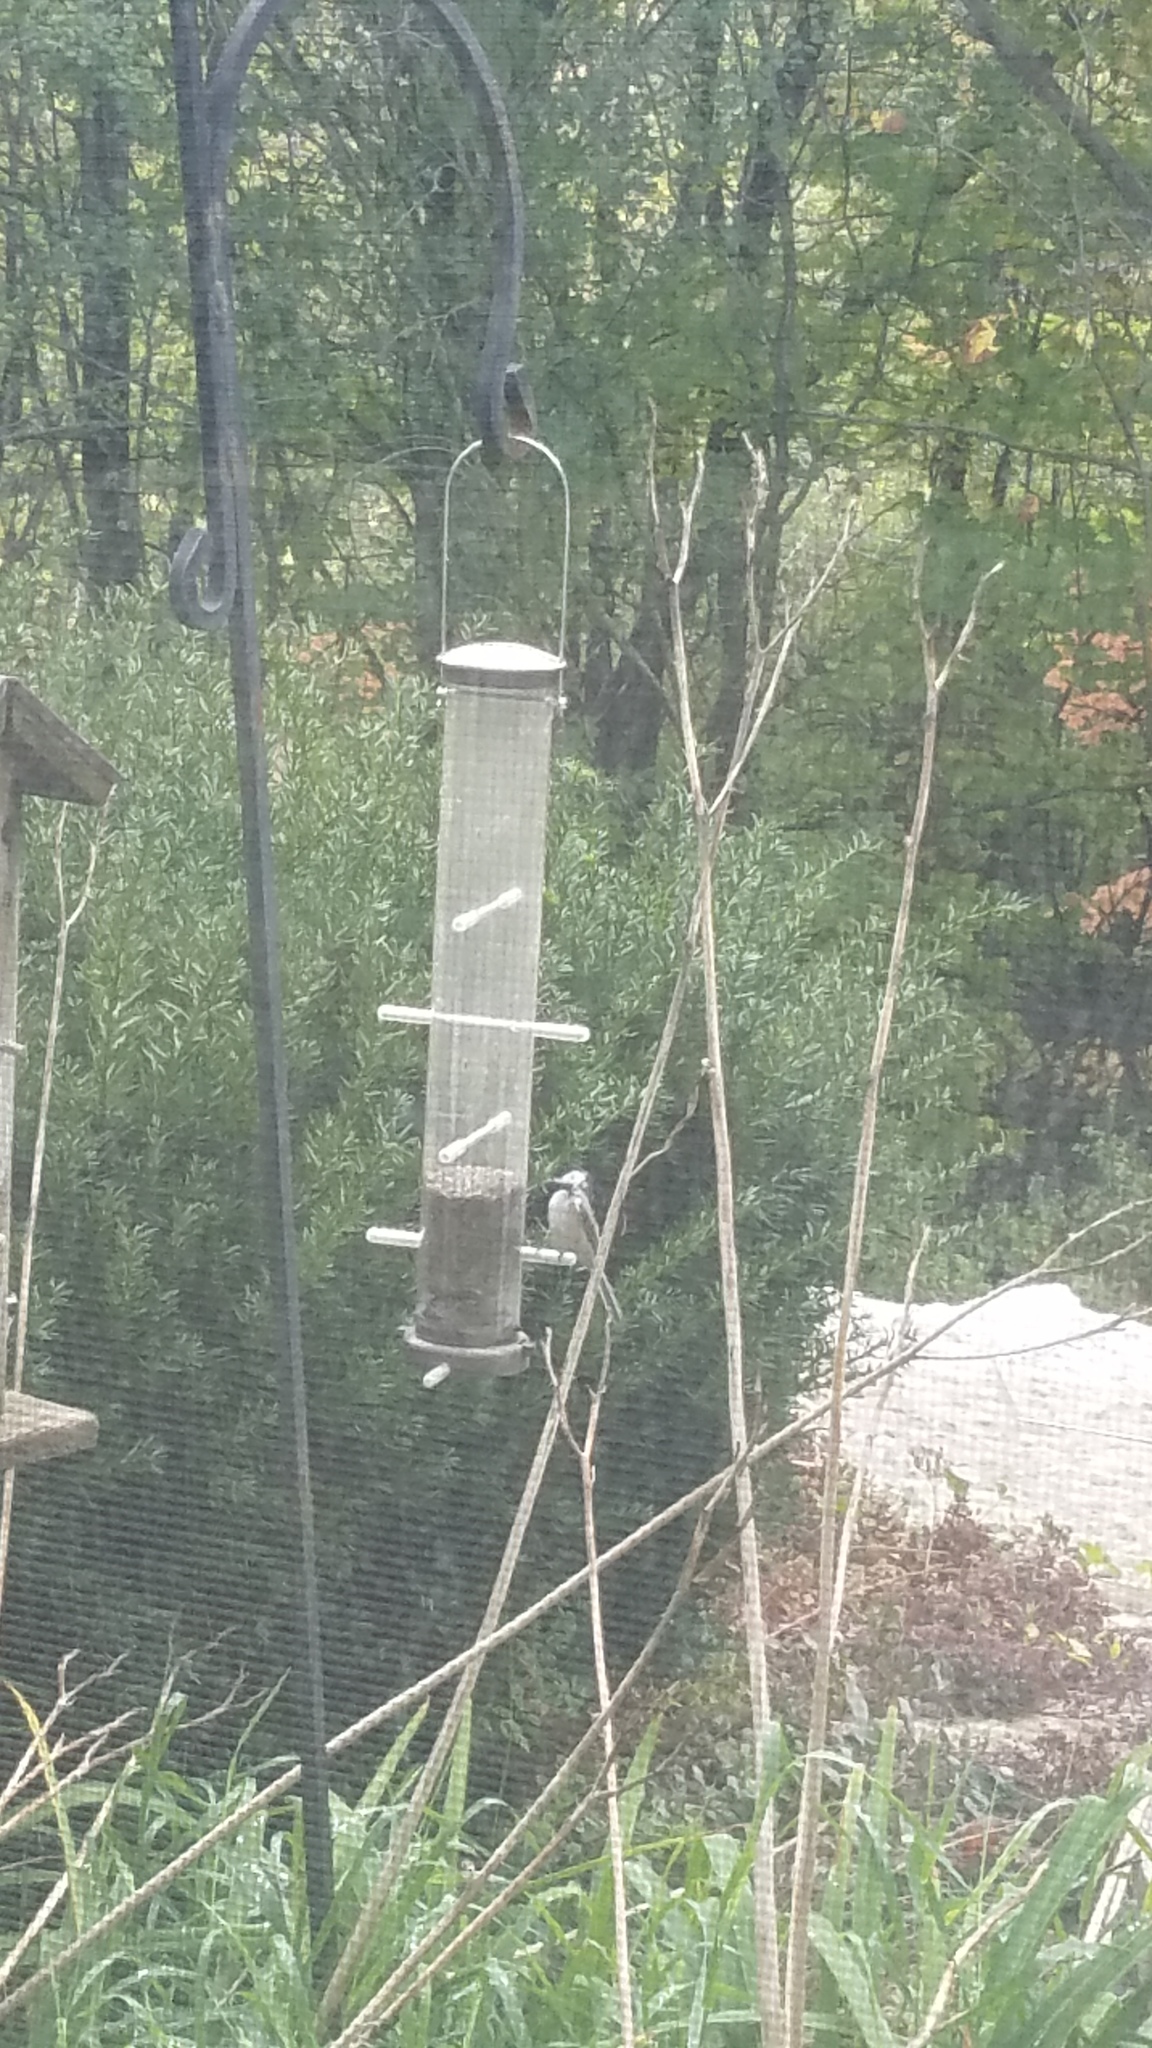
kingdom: Animalia
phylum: Chordata
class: Aves
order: Passeriformes
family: Paridae
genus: Poecile
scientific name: Poecile atricapillus
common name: Black-capped chickadee
